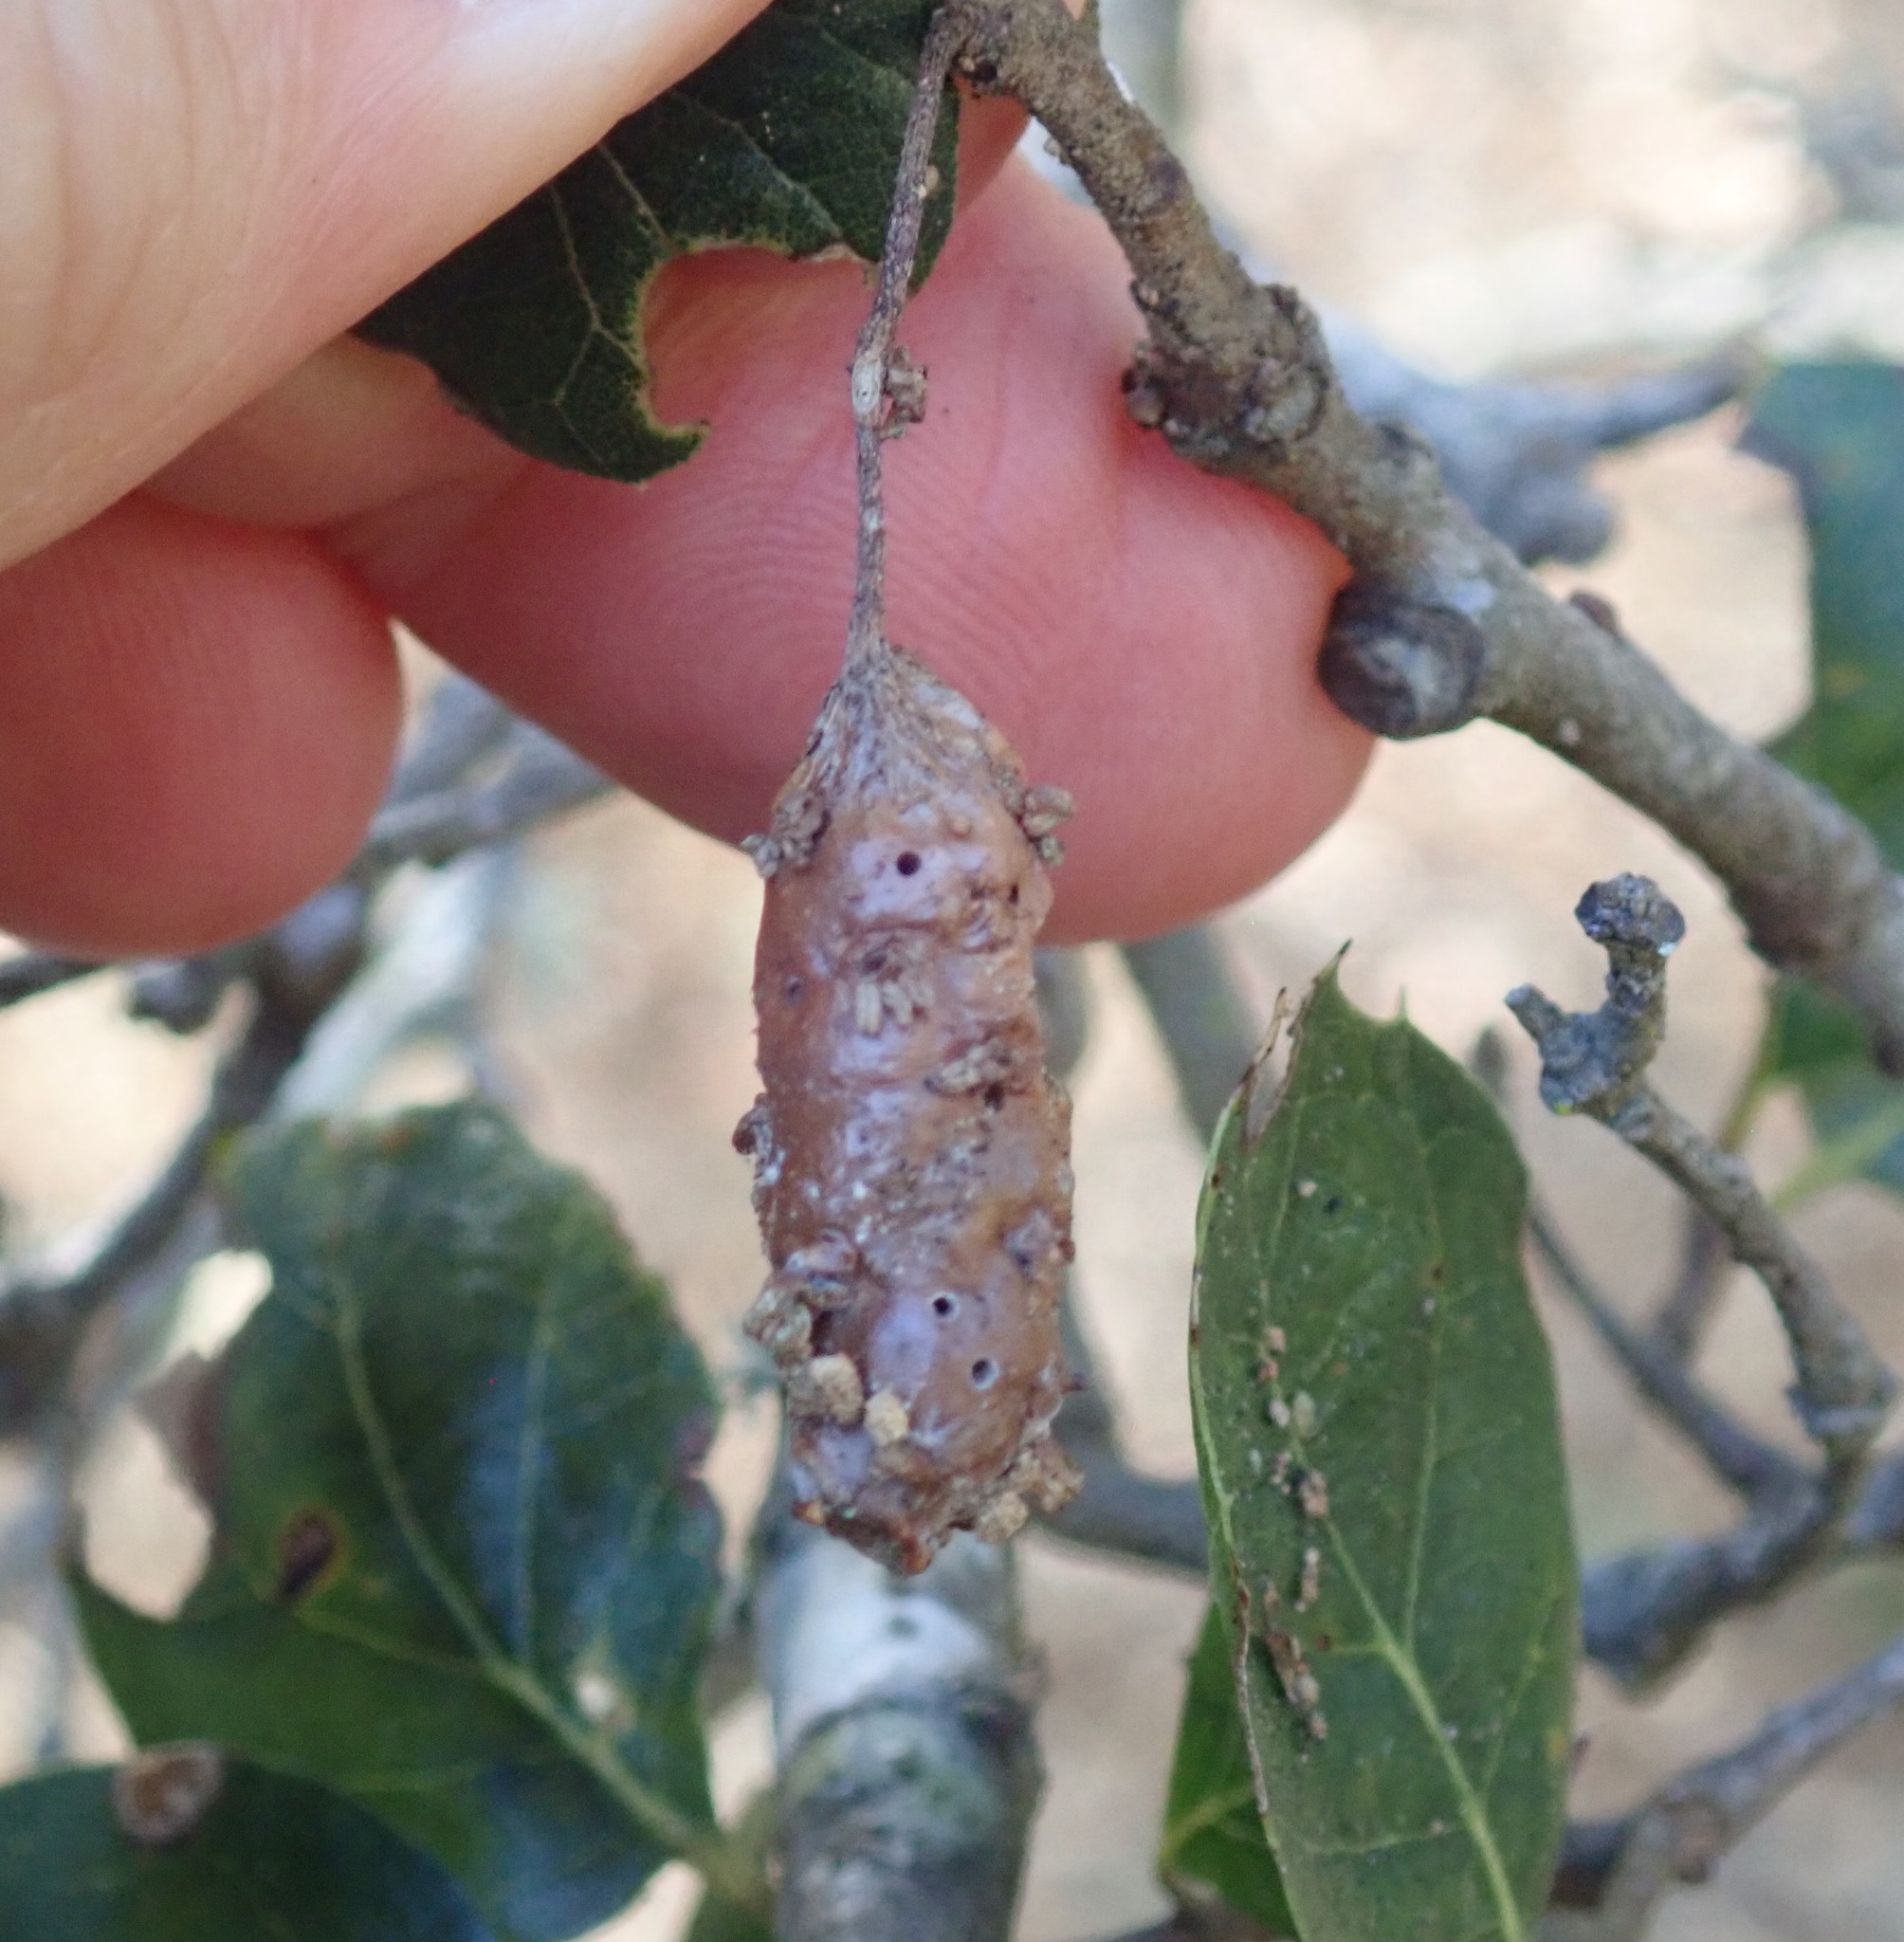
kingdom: Animalia
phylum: Arthropoda
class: Insecta
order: Hymenoptera
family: Cynipidae
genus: Callirhytis
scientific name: Callirhytis
